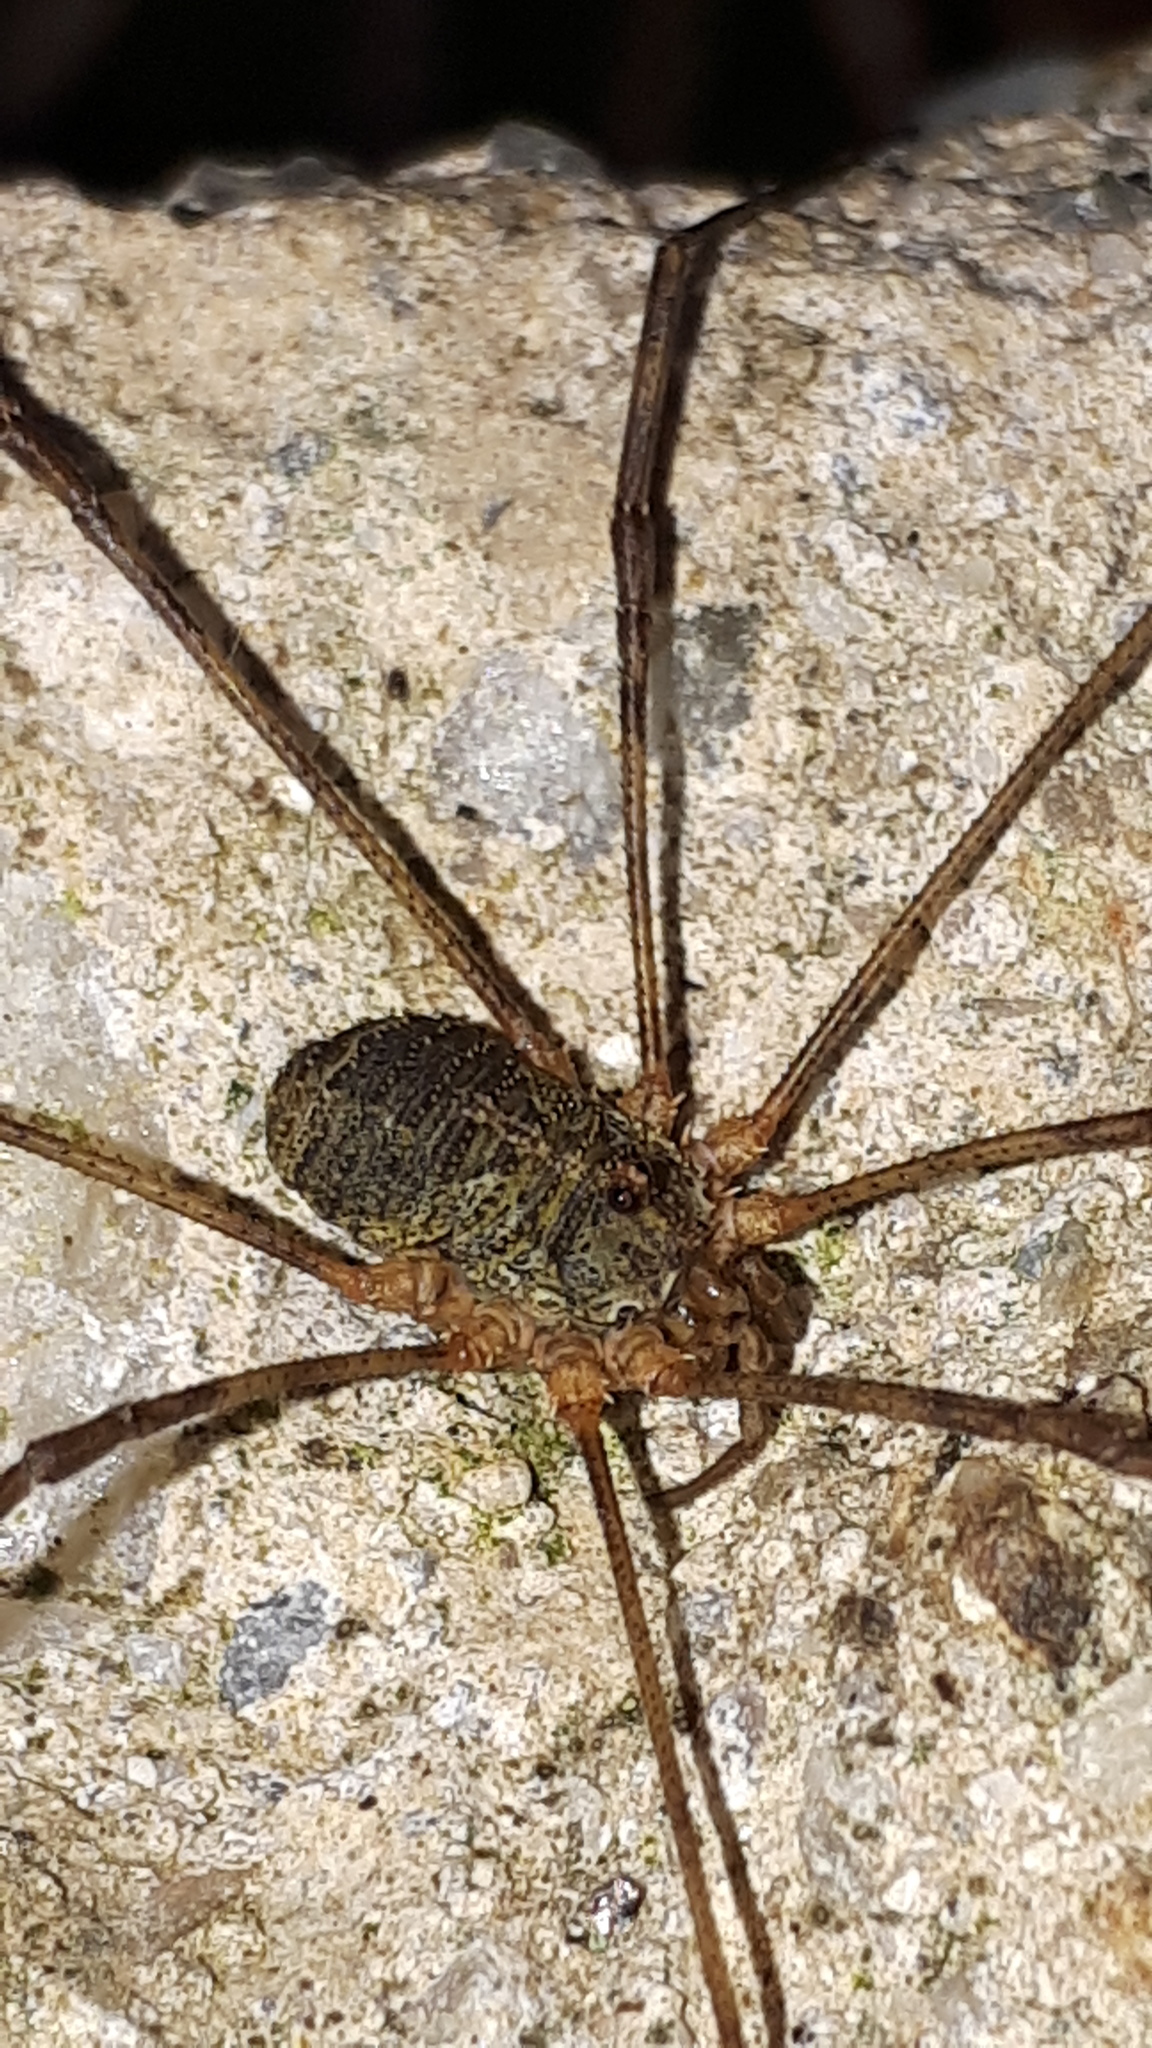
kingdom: Animalia
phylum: Arthropoda
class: Arachnida
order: Opiliones
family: Phalangiidae
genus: Lacinius
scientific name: Lacinius dentiger
